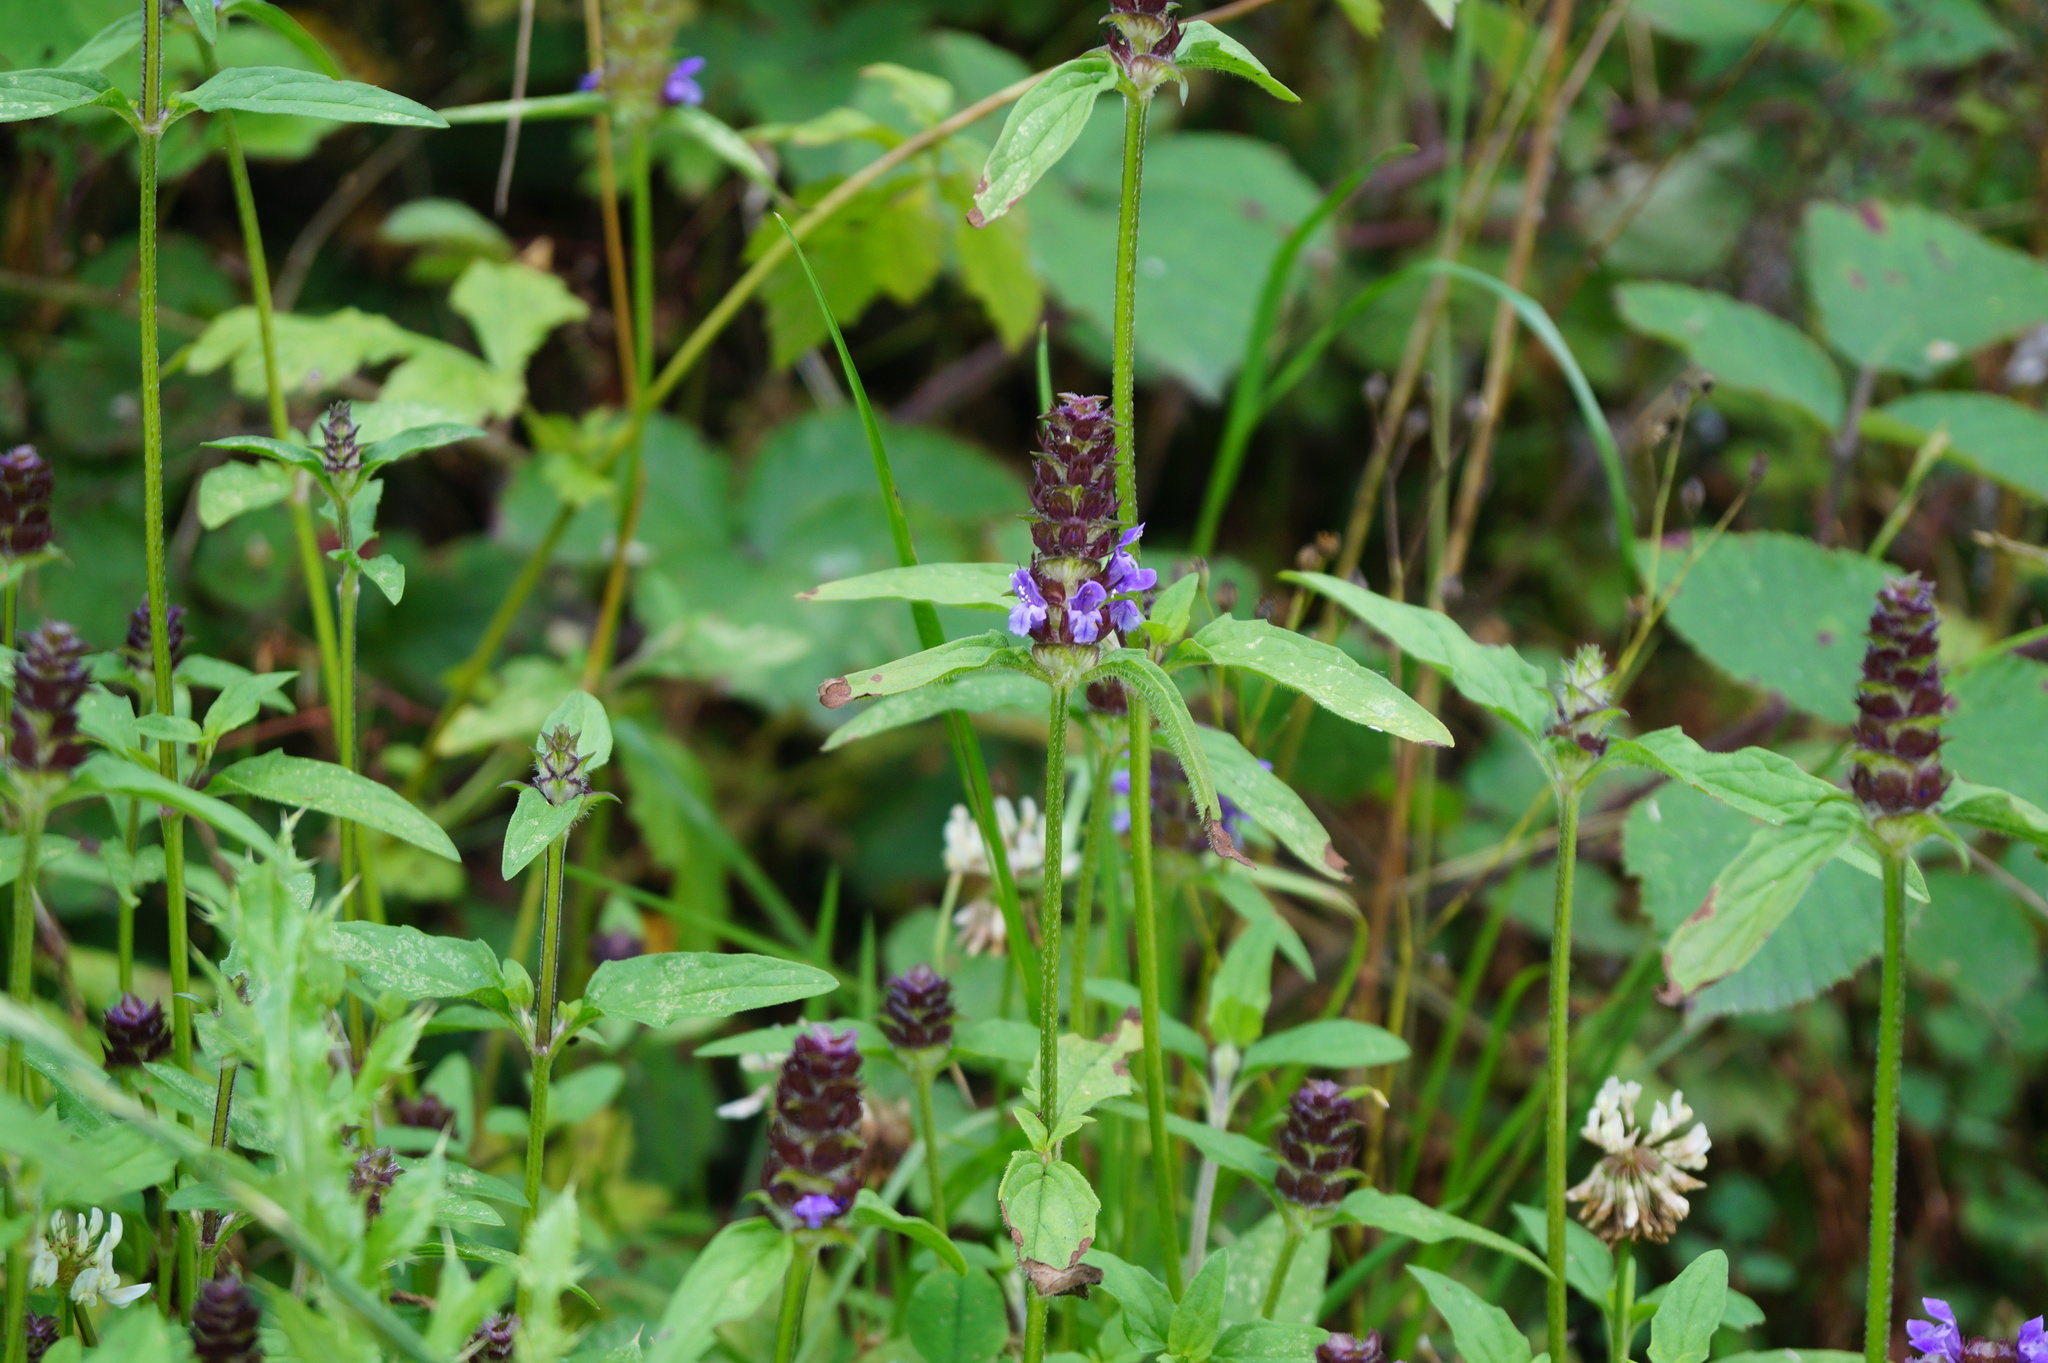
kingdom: Plantae
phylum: Tracheophyta
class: Magnoliopsida
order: Lamiales
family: Lamiaceae
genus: Prunella
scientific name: Prunella vulgaris
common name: Heal-all
